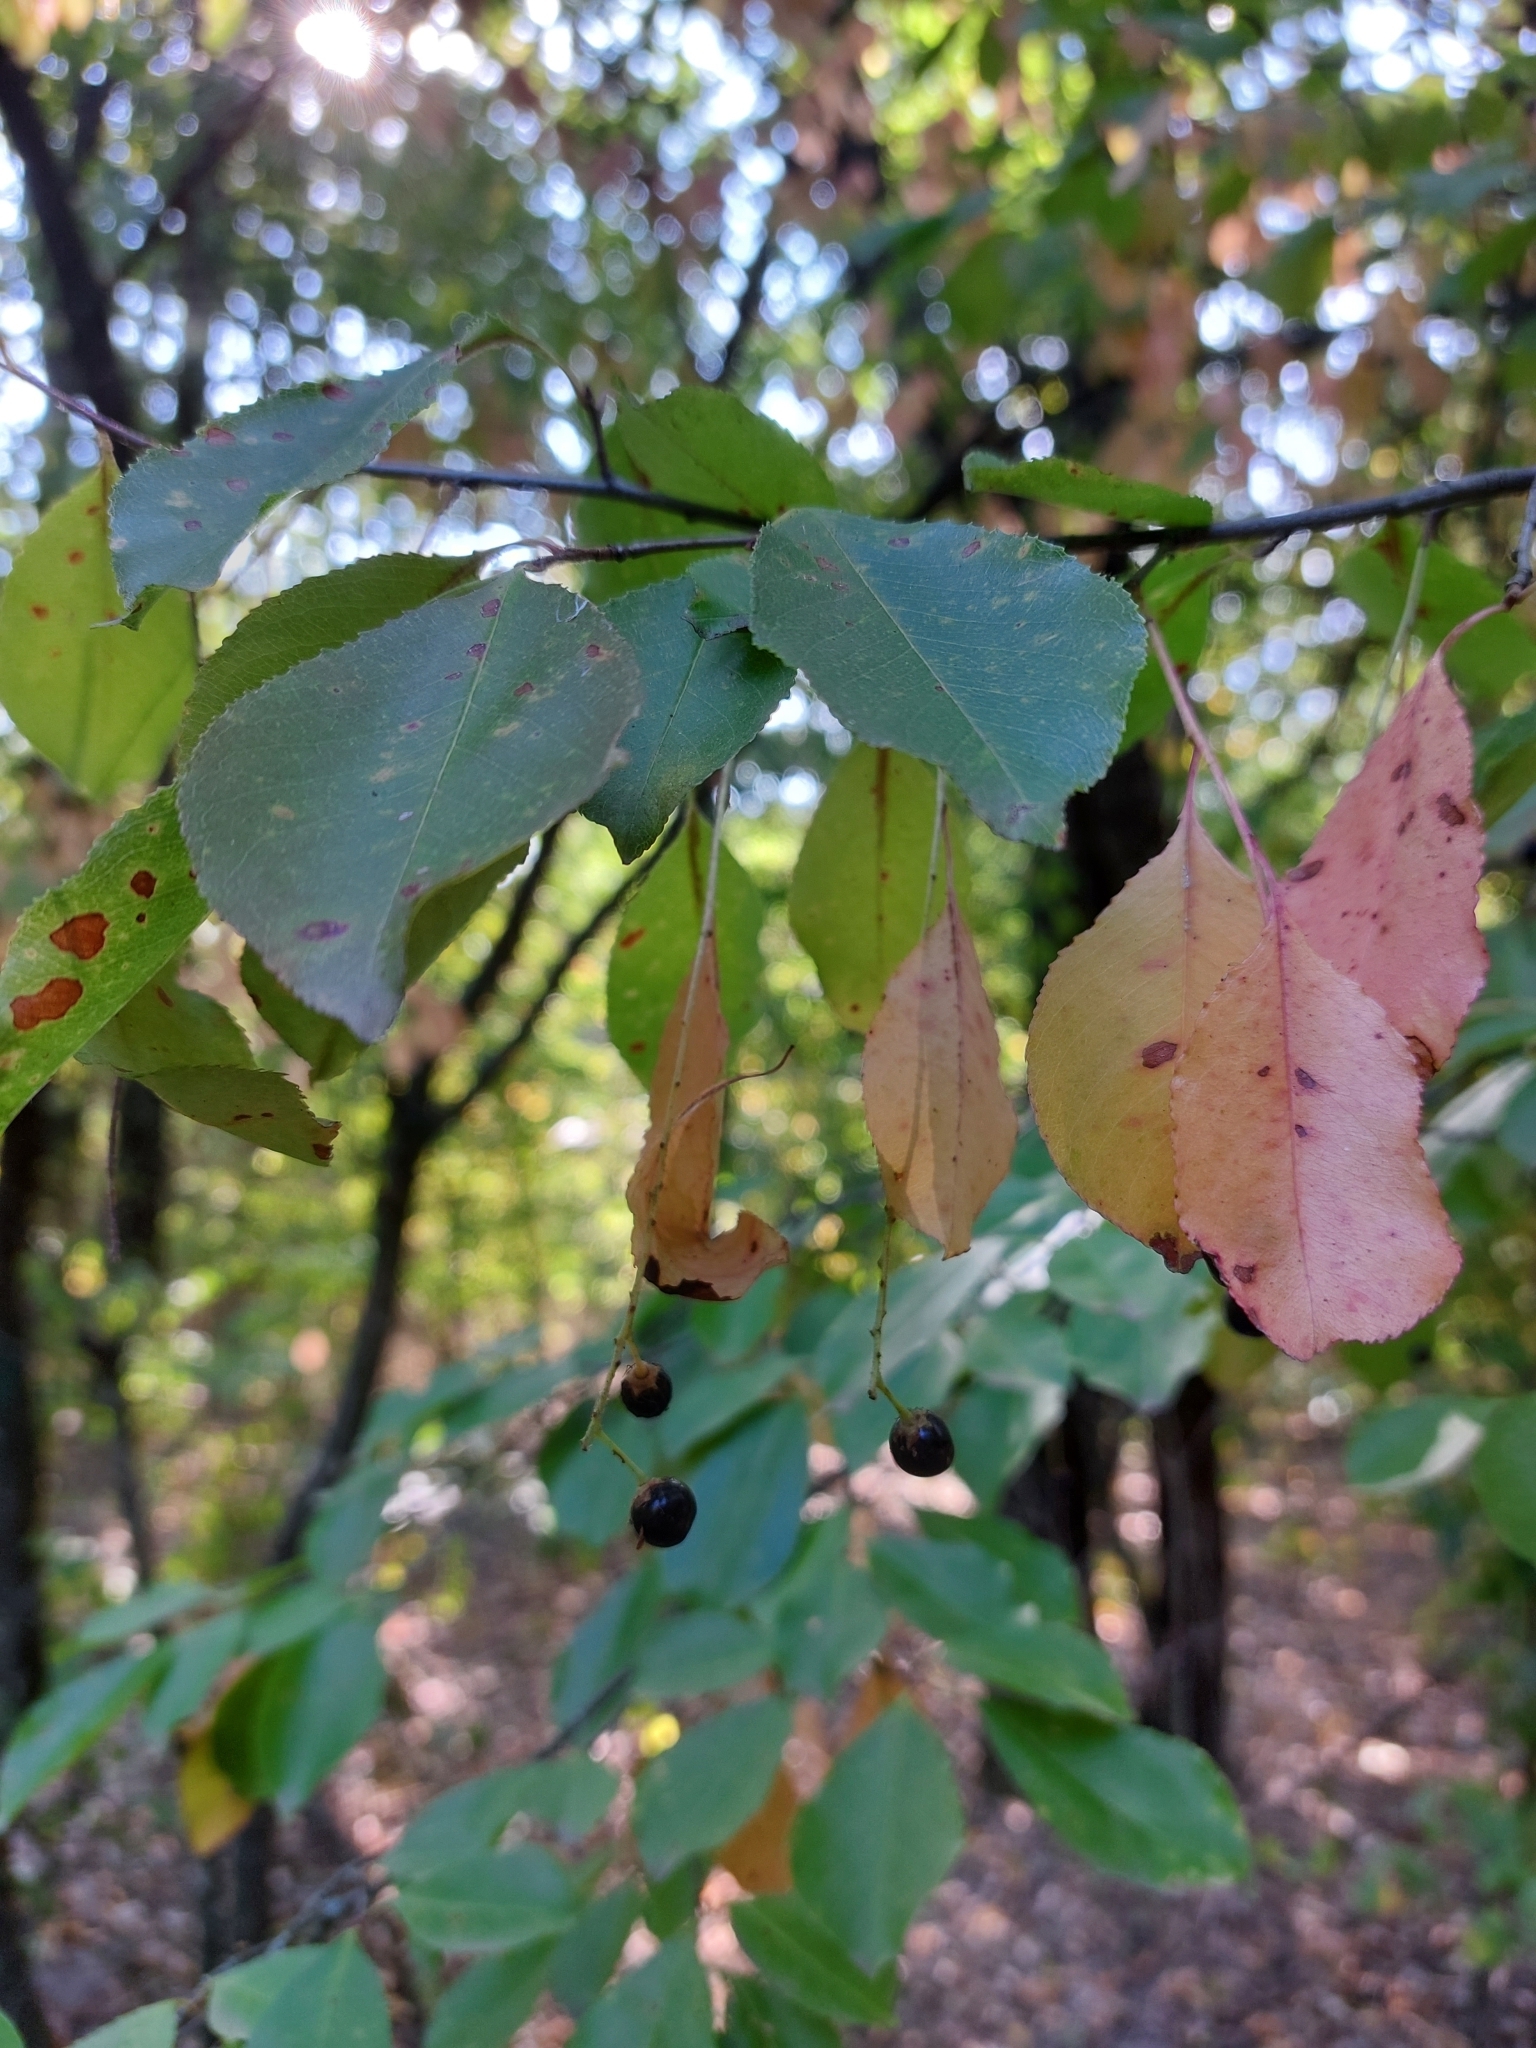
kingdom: Plantae
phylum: Tracheophyta
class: Magnoliopsida
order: Rosales
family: Rosaceae
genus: Prunus
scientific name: Prunus serotina
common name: Black cherry
